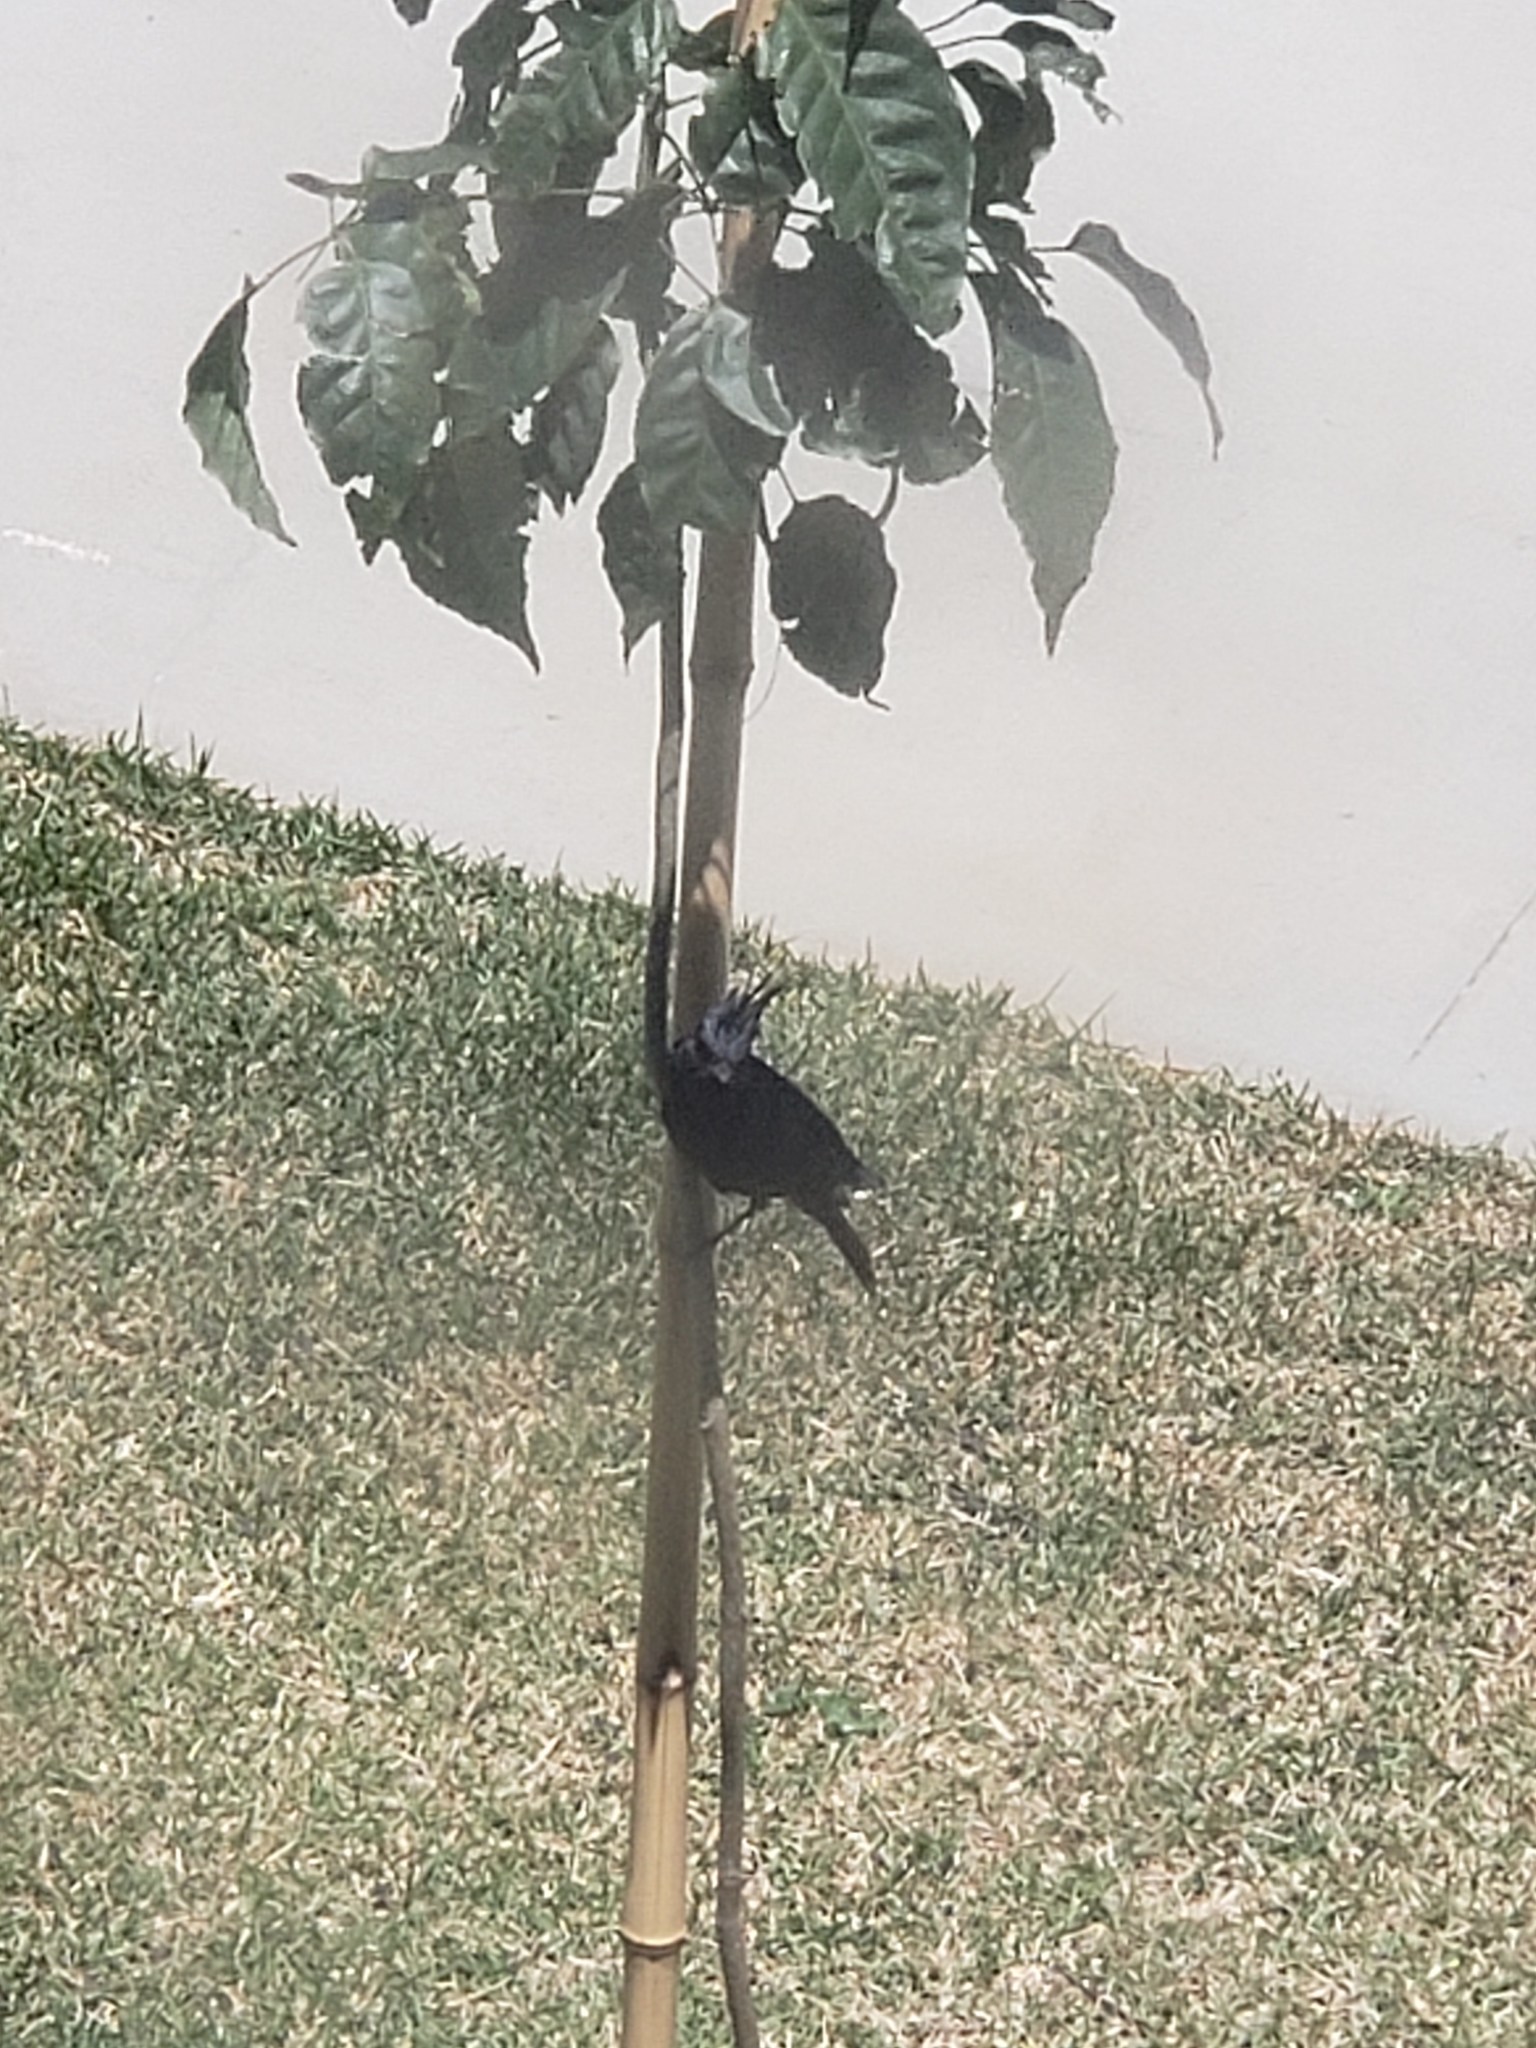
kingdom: Animalia
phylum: Chordata
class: Aves
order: Passeriformes
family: Tyrannidae
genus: Knipolegus
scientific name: Knipolegus lophotes
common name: Crested black tyrant
